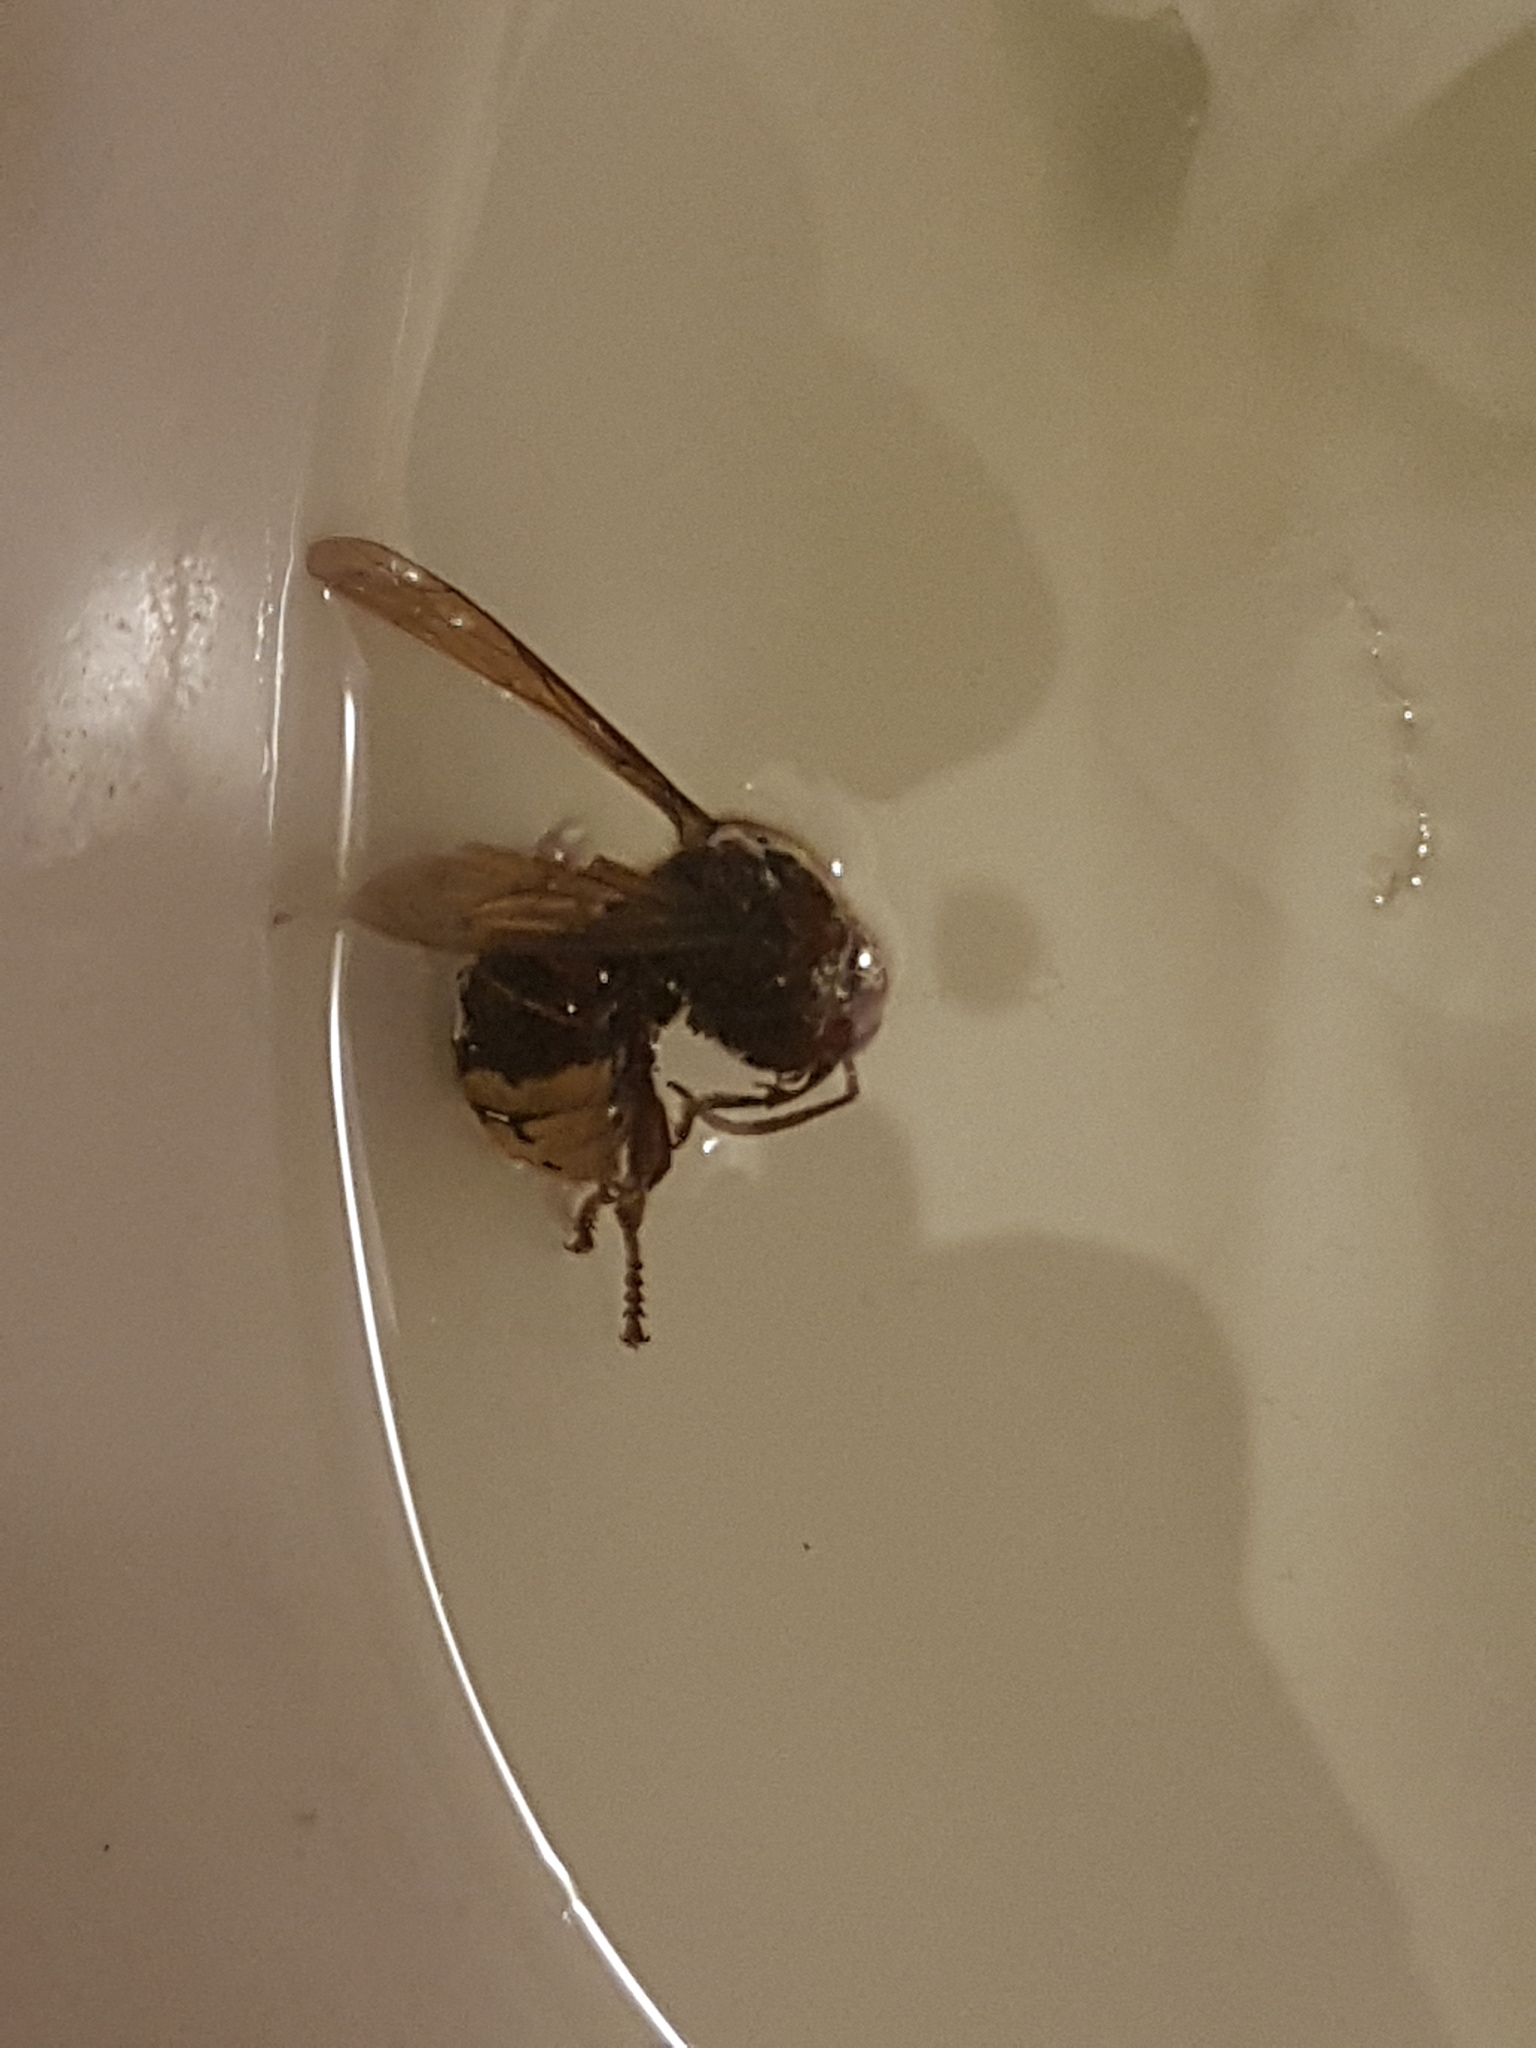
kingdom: Animalia
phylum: Arthropoda
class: Insecta
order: Hymenoptera
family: Vespidae
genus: Vespa
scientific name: Vespa crabro
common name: Hornet
